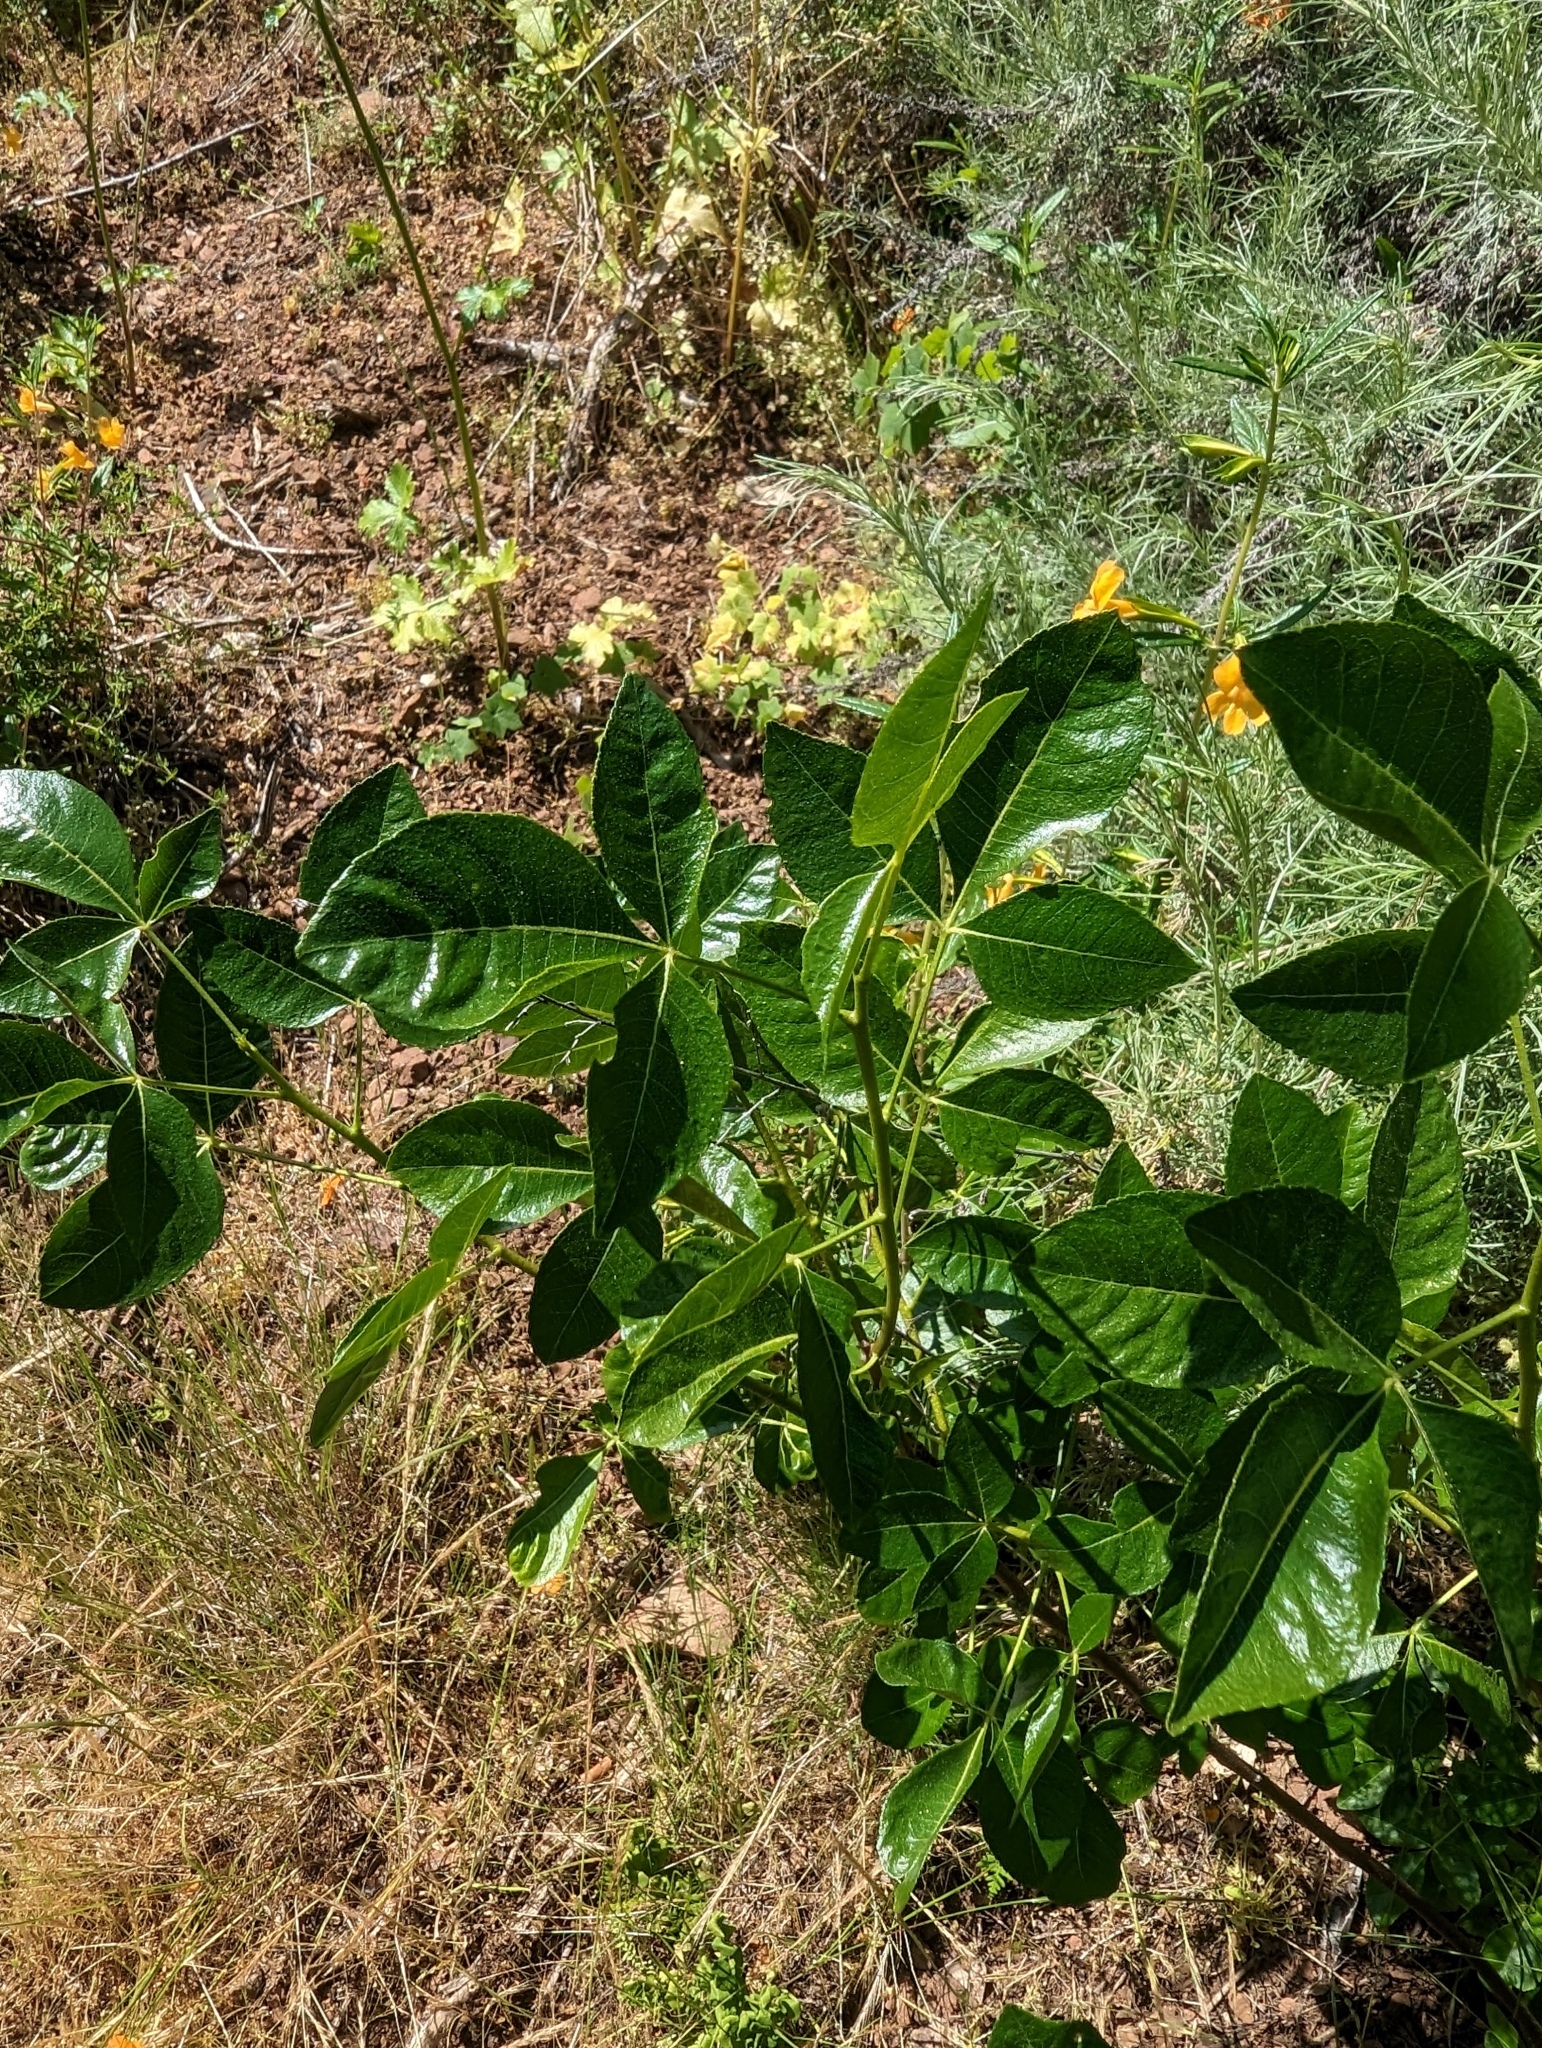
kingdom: Plantae
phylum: Tracheophyta
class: Magnoliopsida
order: Sapindales
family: Rutaceae
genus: Ptelea
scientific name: Ptelea crenulata
